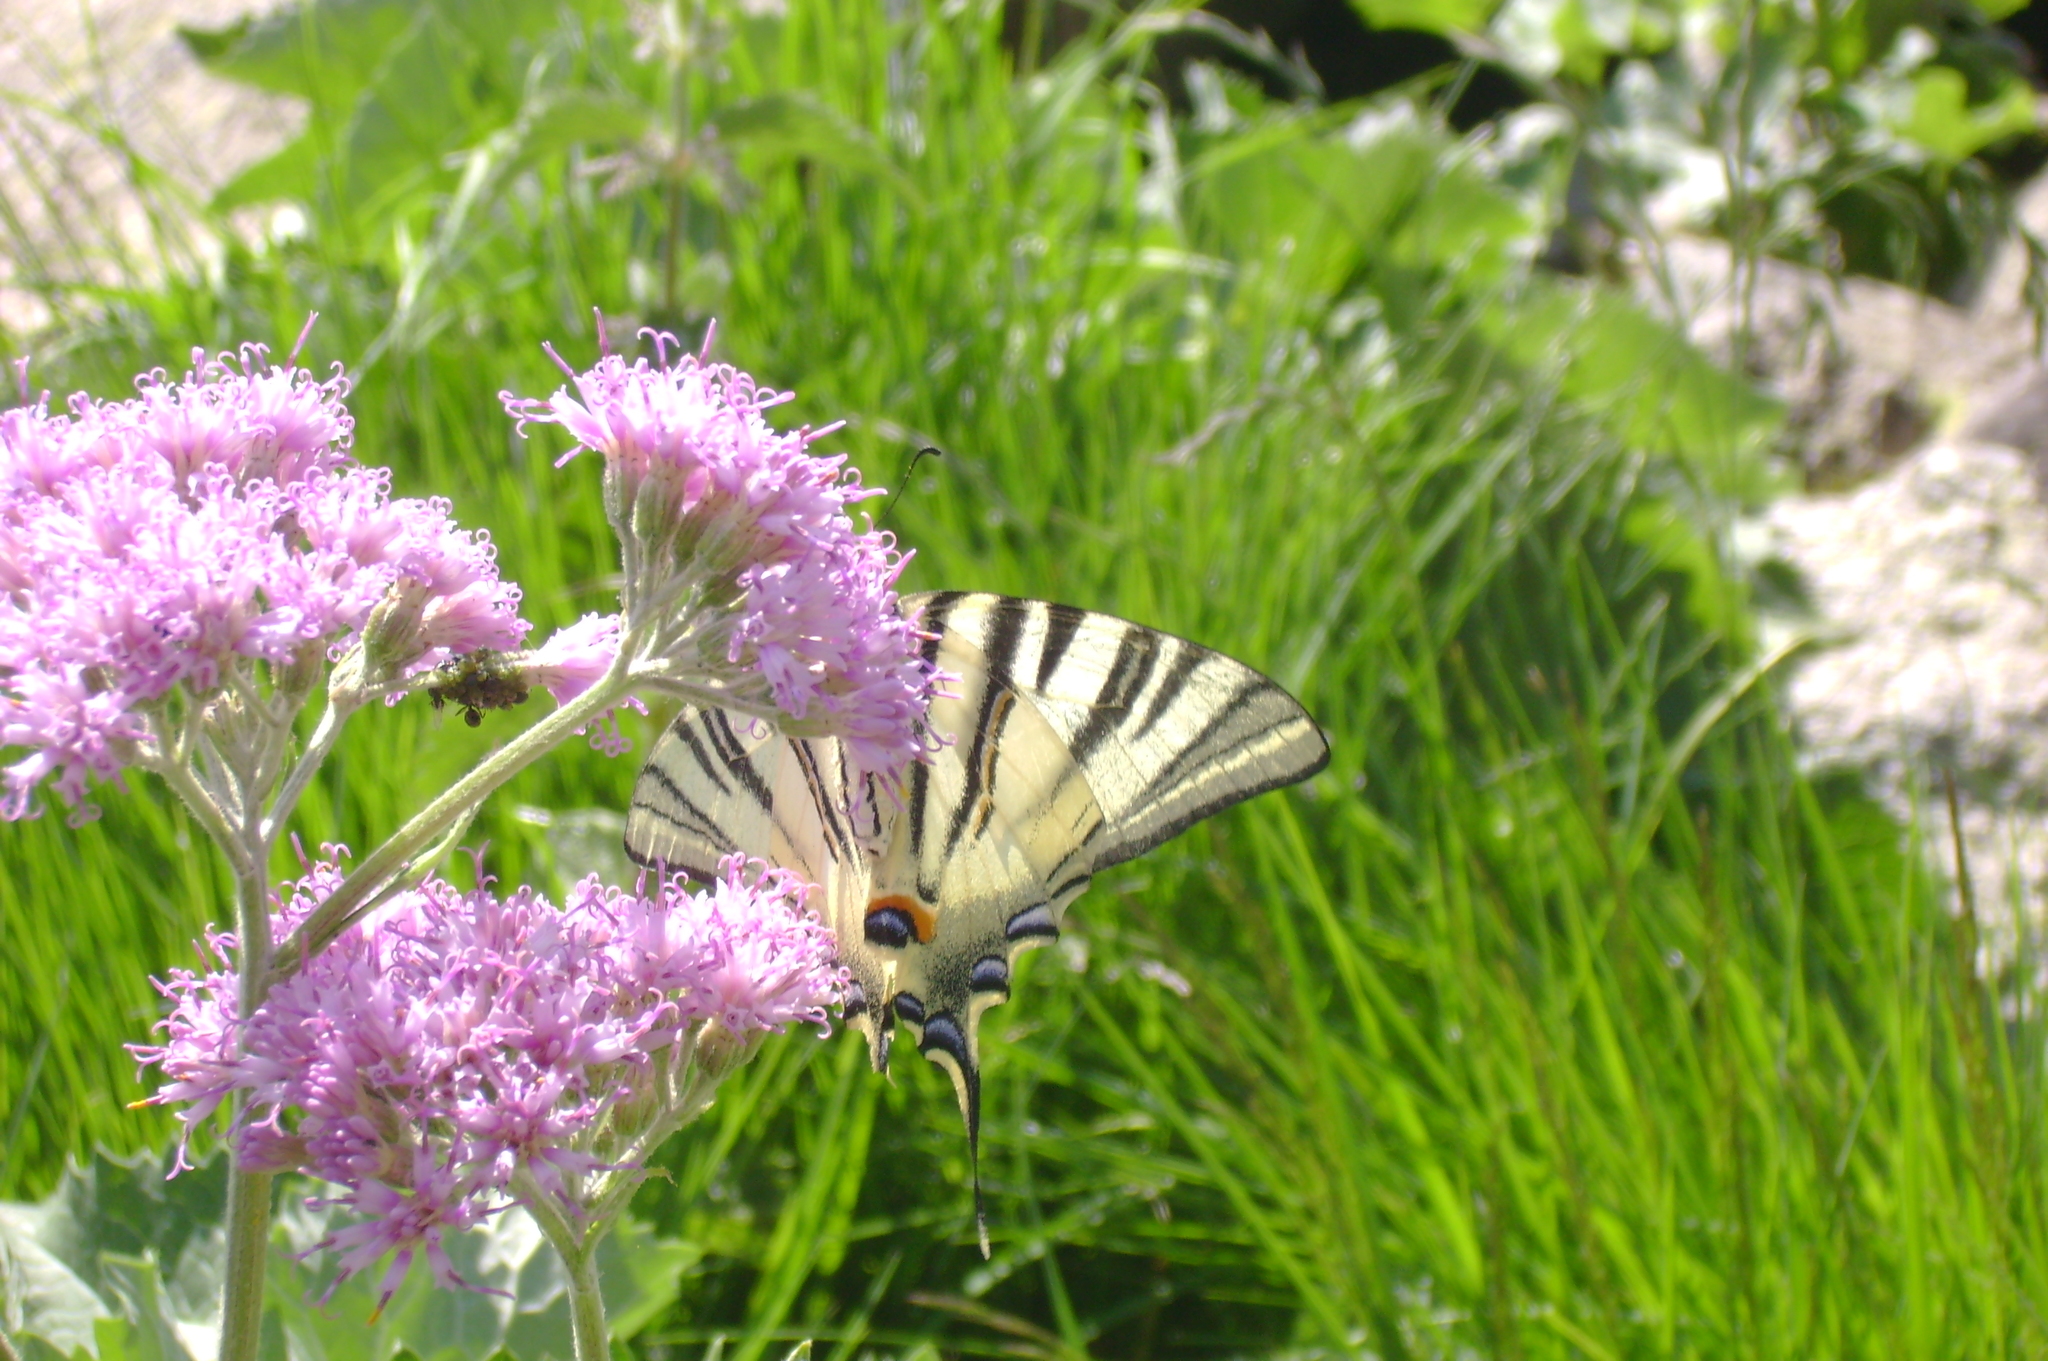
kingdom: Animalia
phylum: Arthropoda
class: Insecta
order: Lepidoptera
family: Papilionidae
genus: Iphiclides
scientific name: Iphiclides podalirius
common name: Scarce swallowtail
